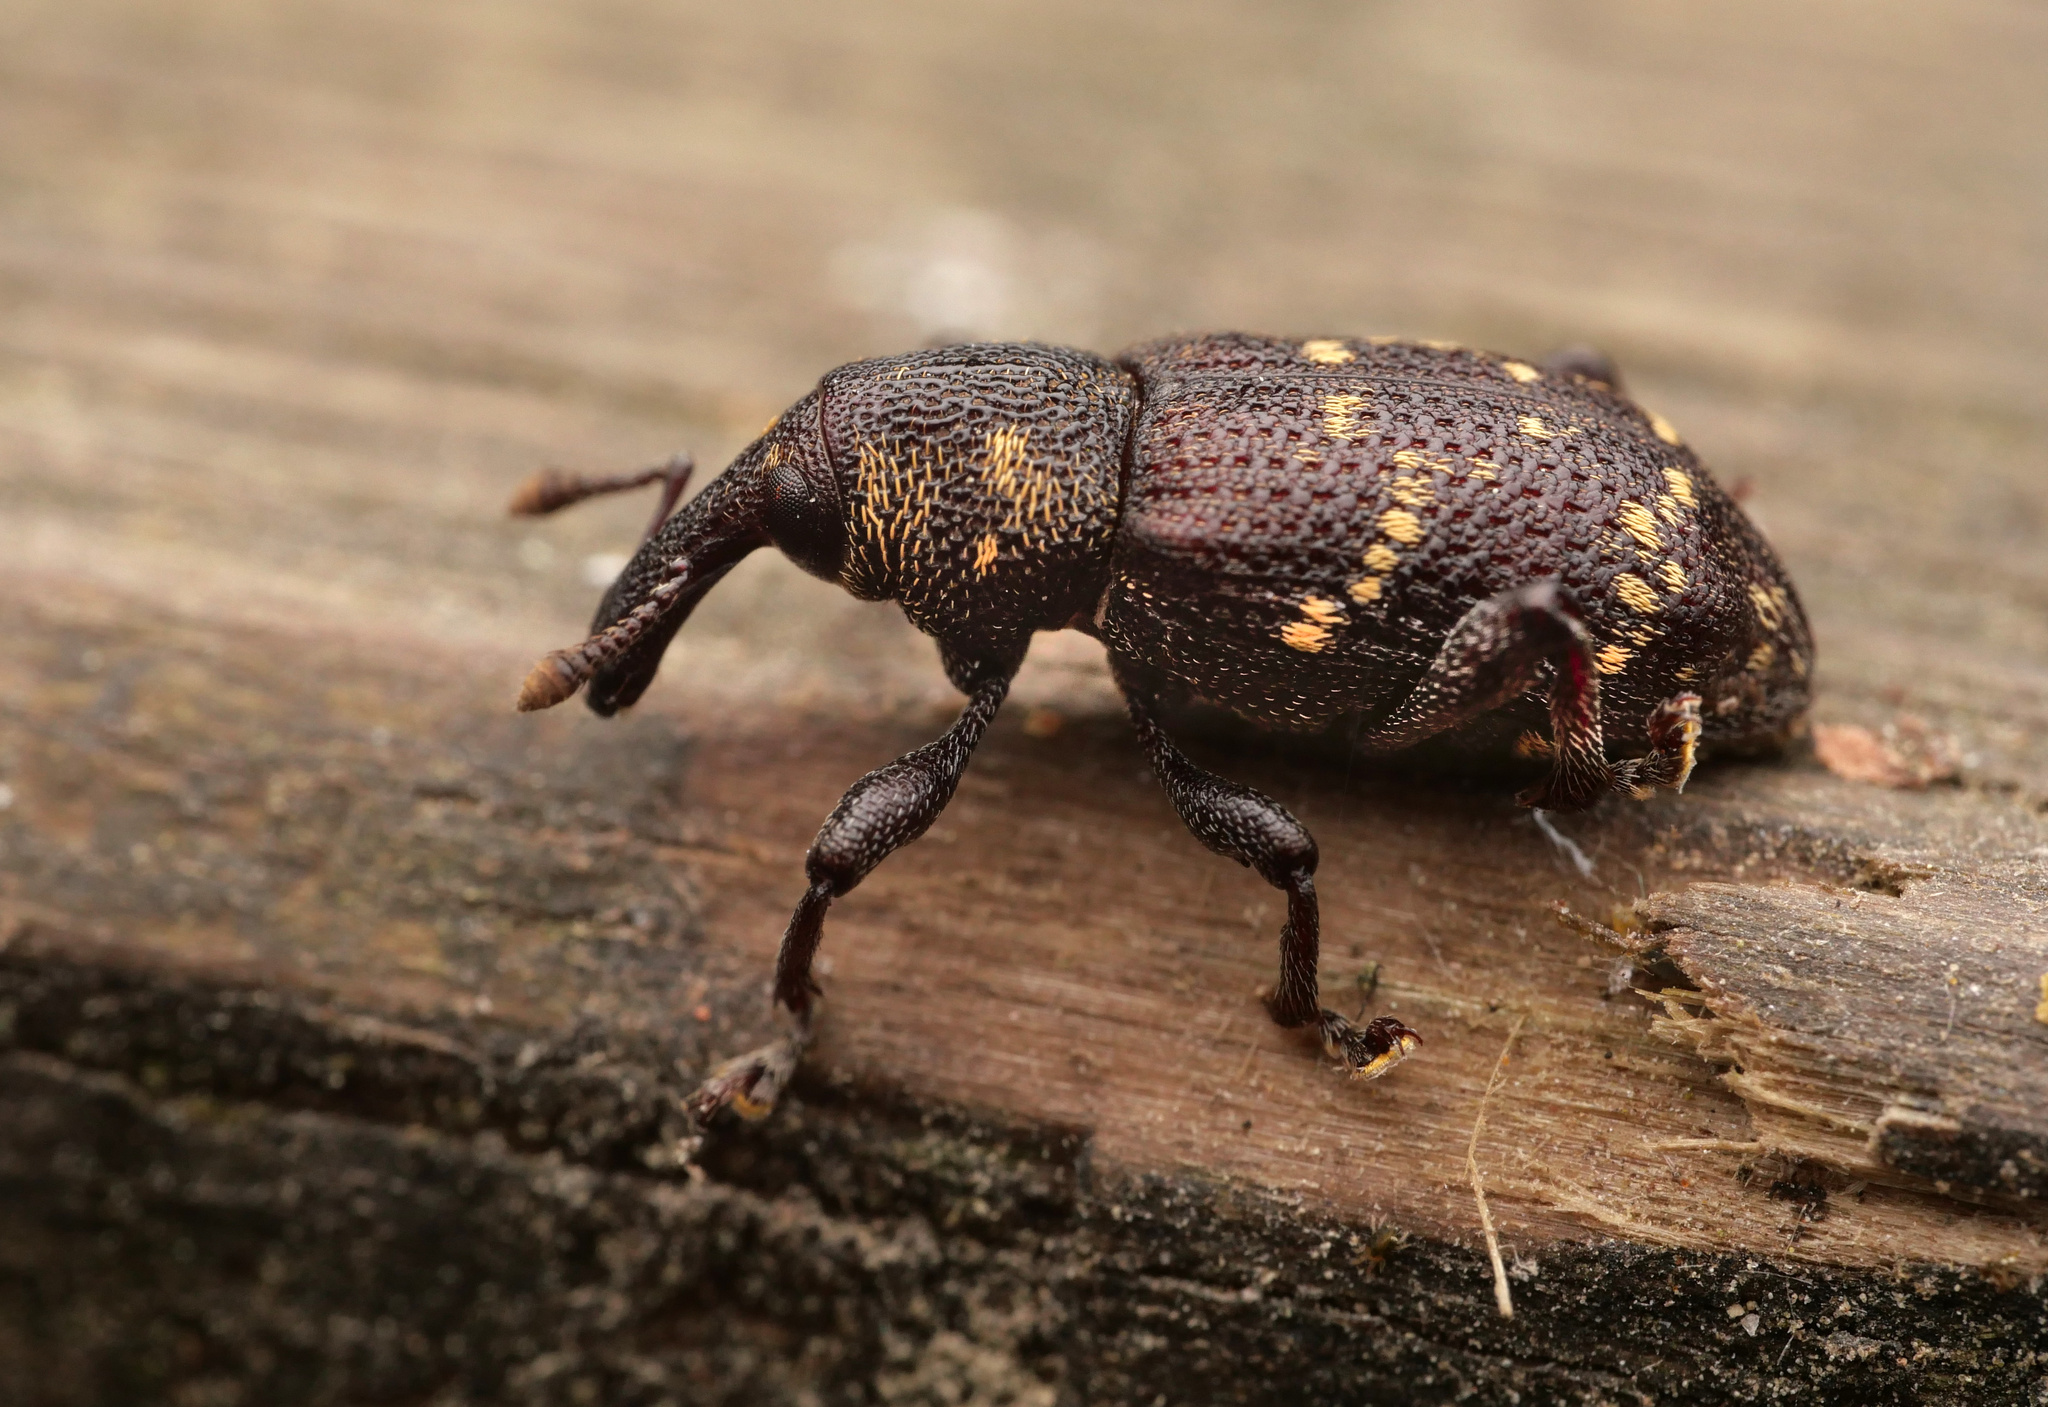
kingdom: Animalia
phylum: Arthropoda
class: Insecta
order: Coleoptera
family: Curculionidae
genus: Hylobius
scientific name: Hylobius abietis
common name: Large pine weevil
